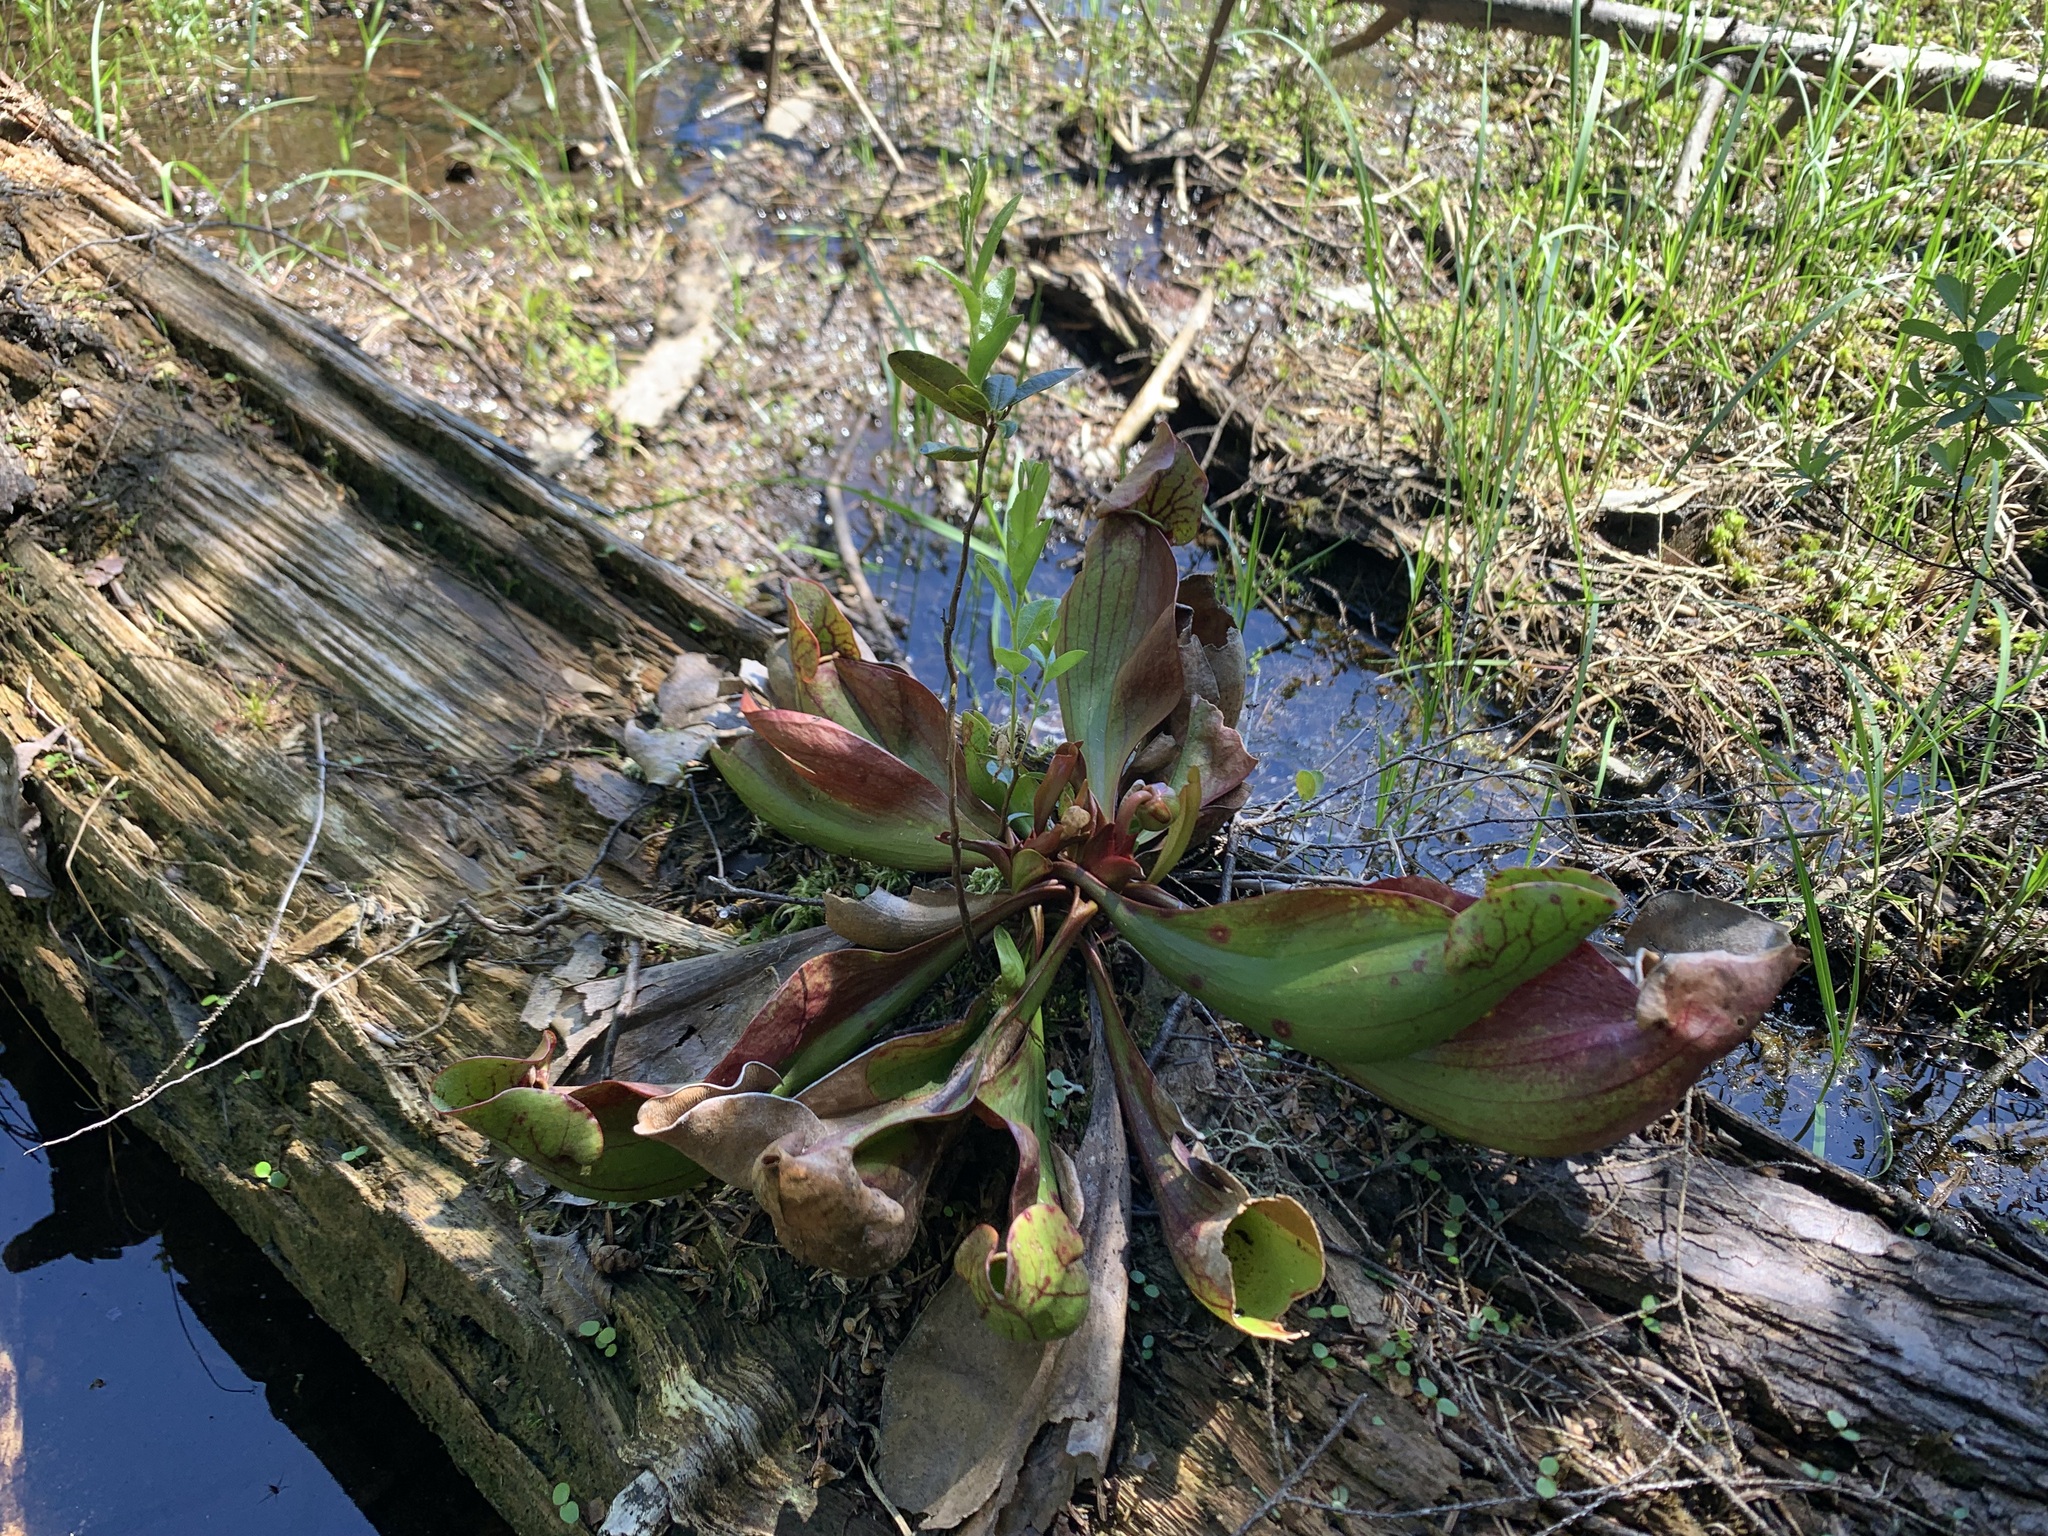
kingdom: Plantae
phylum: Tracheophyta
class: Magnoliopsida
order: Ericales
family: Sarraceniaceae
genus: Sarracenia
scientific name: Sarracenia purpurea
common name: Pitcherplant
